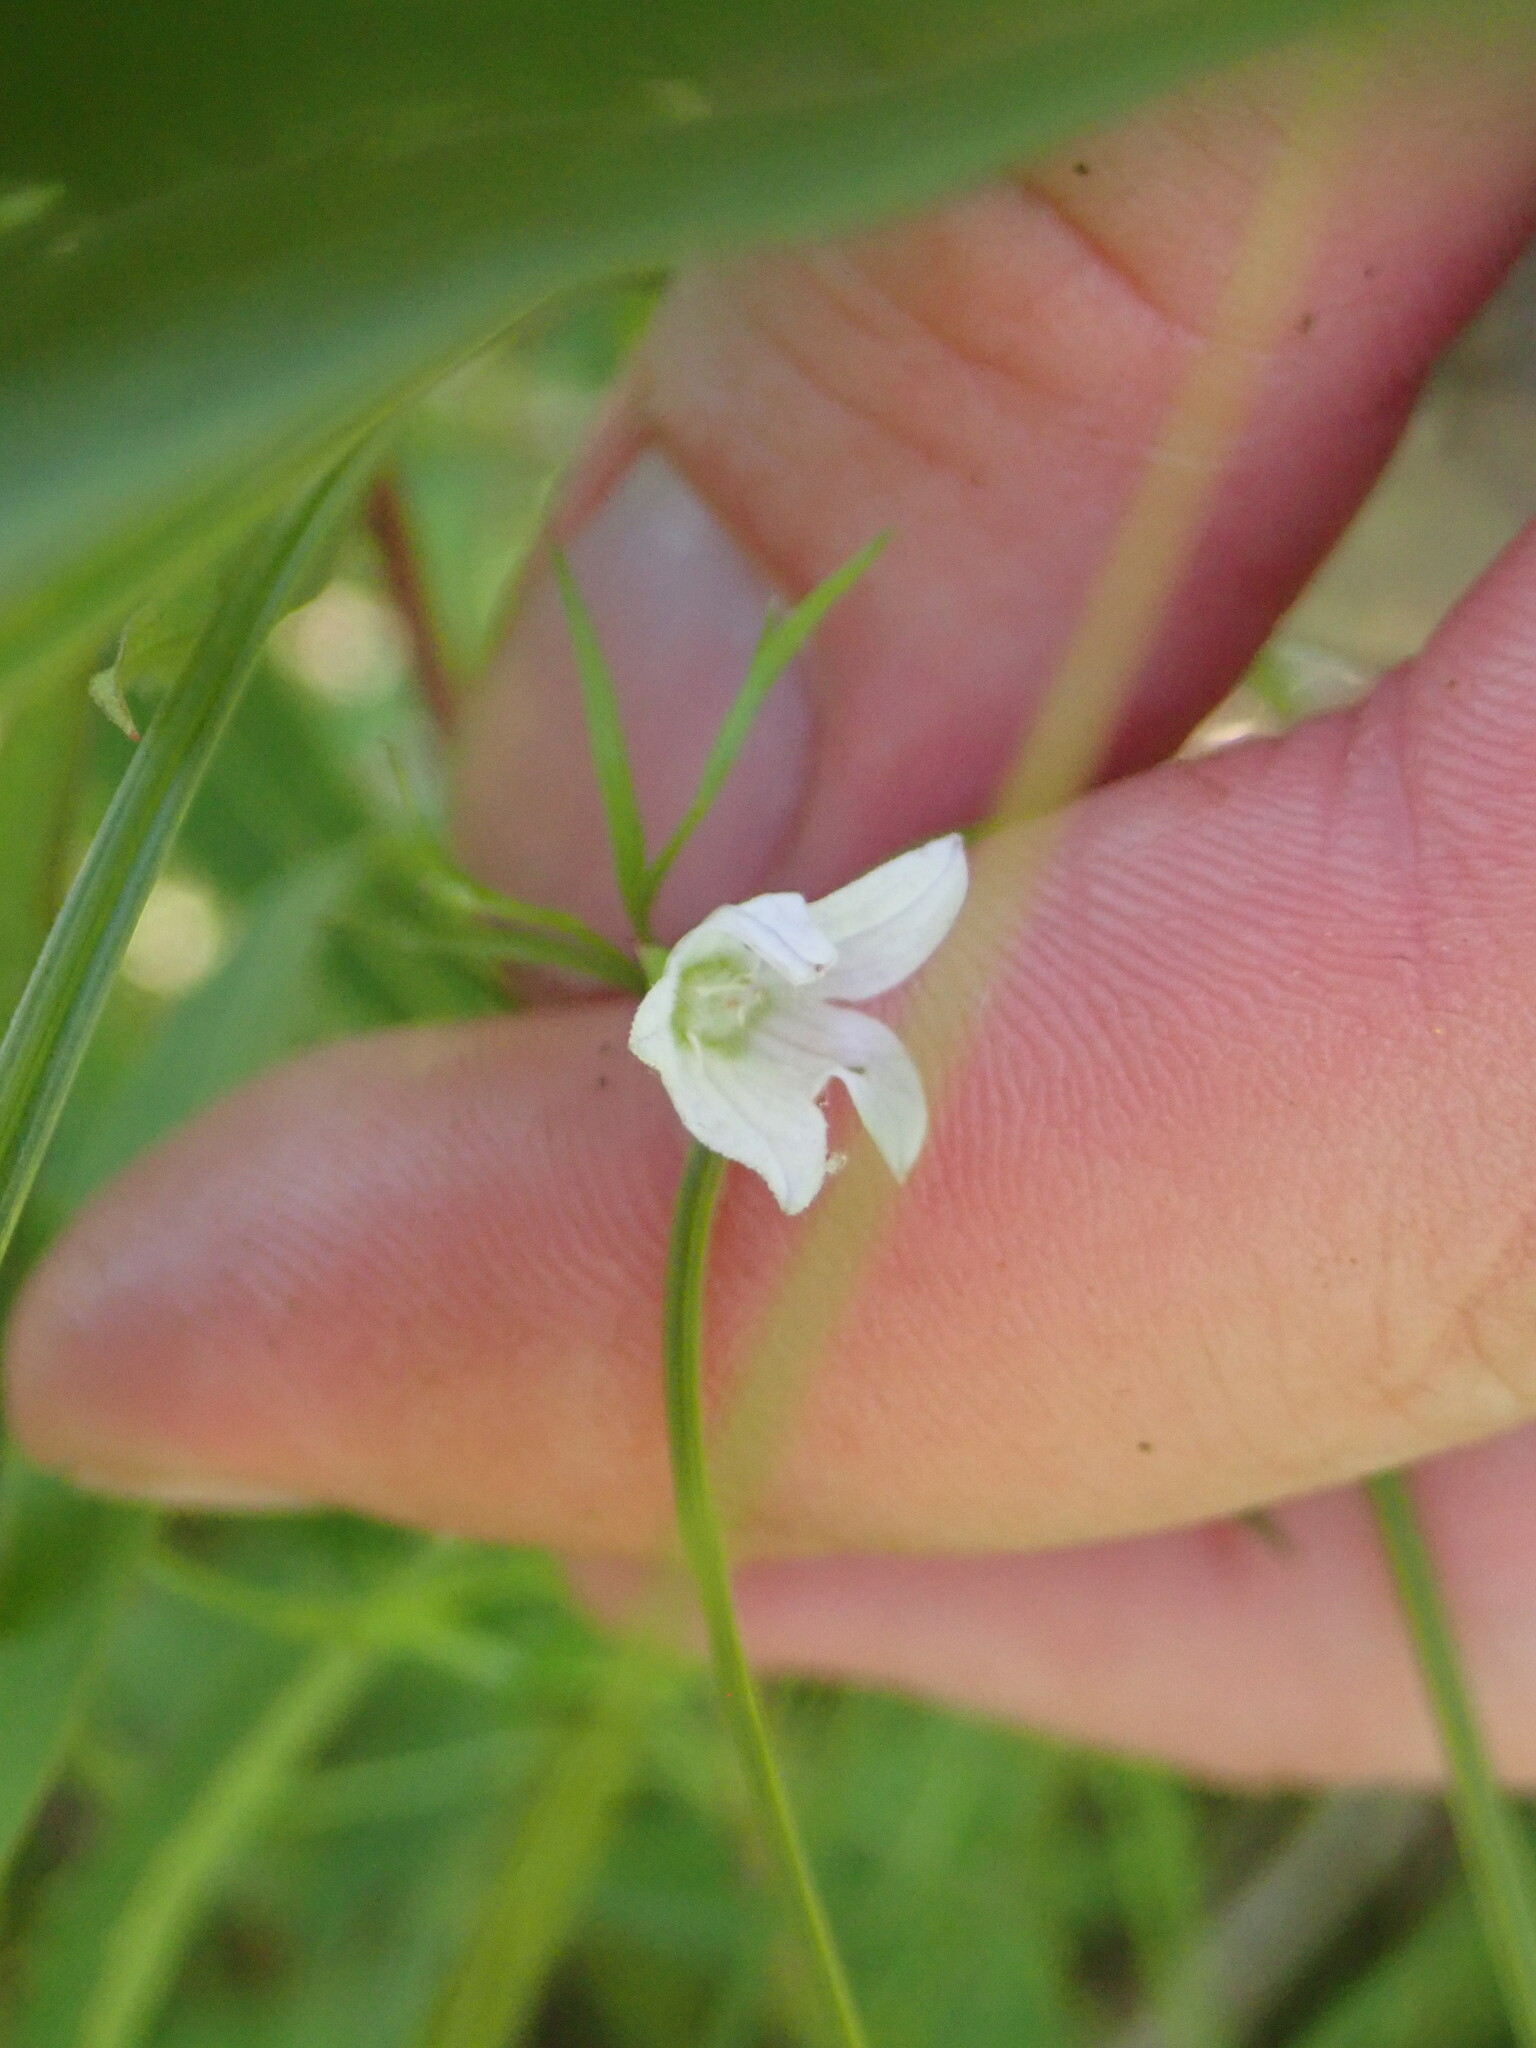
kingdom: Plantae
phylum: Tracheophyta
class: Magnoliopsida
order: Asterales
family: Campanulaceae
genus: Palustricodon
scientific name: Palustricodon aparinoides
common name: Bedstraw bellflower
